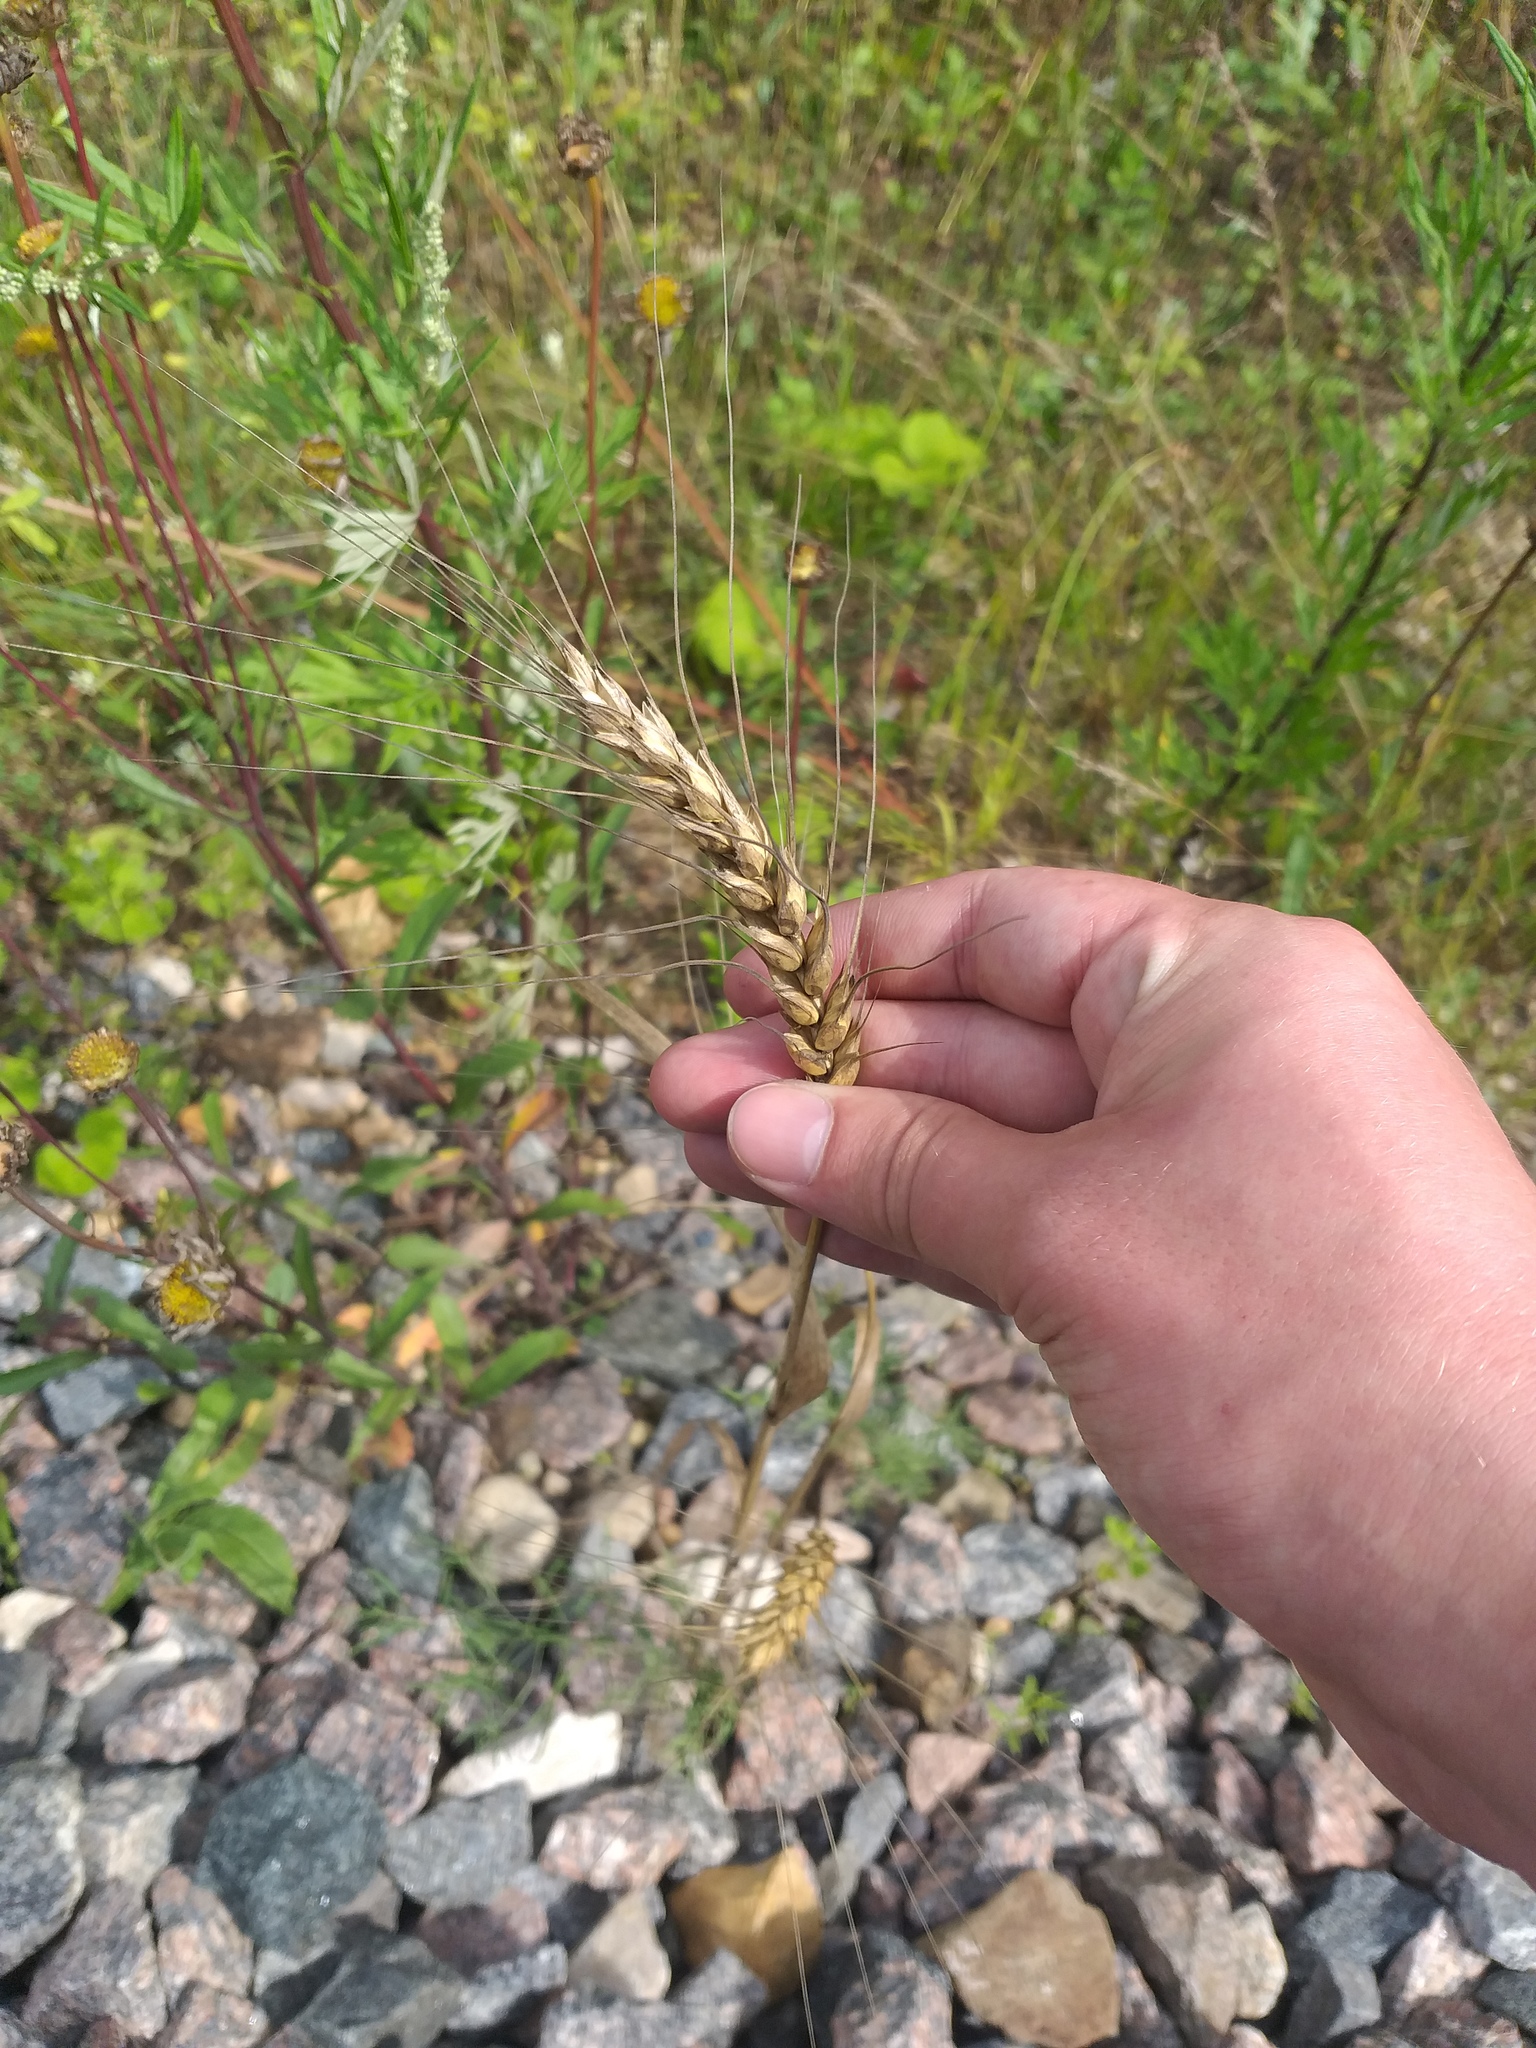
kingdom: Plantae
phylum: Tracheophyta
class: Liliopsida
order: Poales
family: Poaceae
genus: Triticum
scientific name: Triticum aestivum
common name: Common wheat
